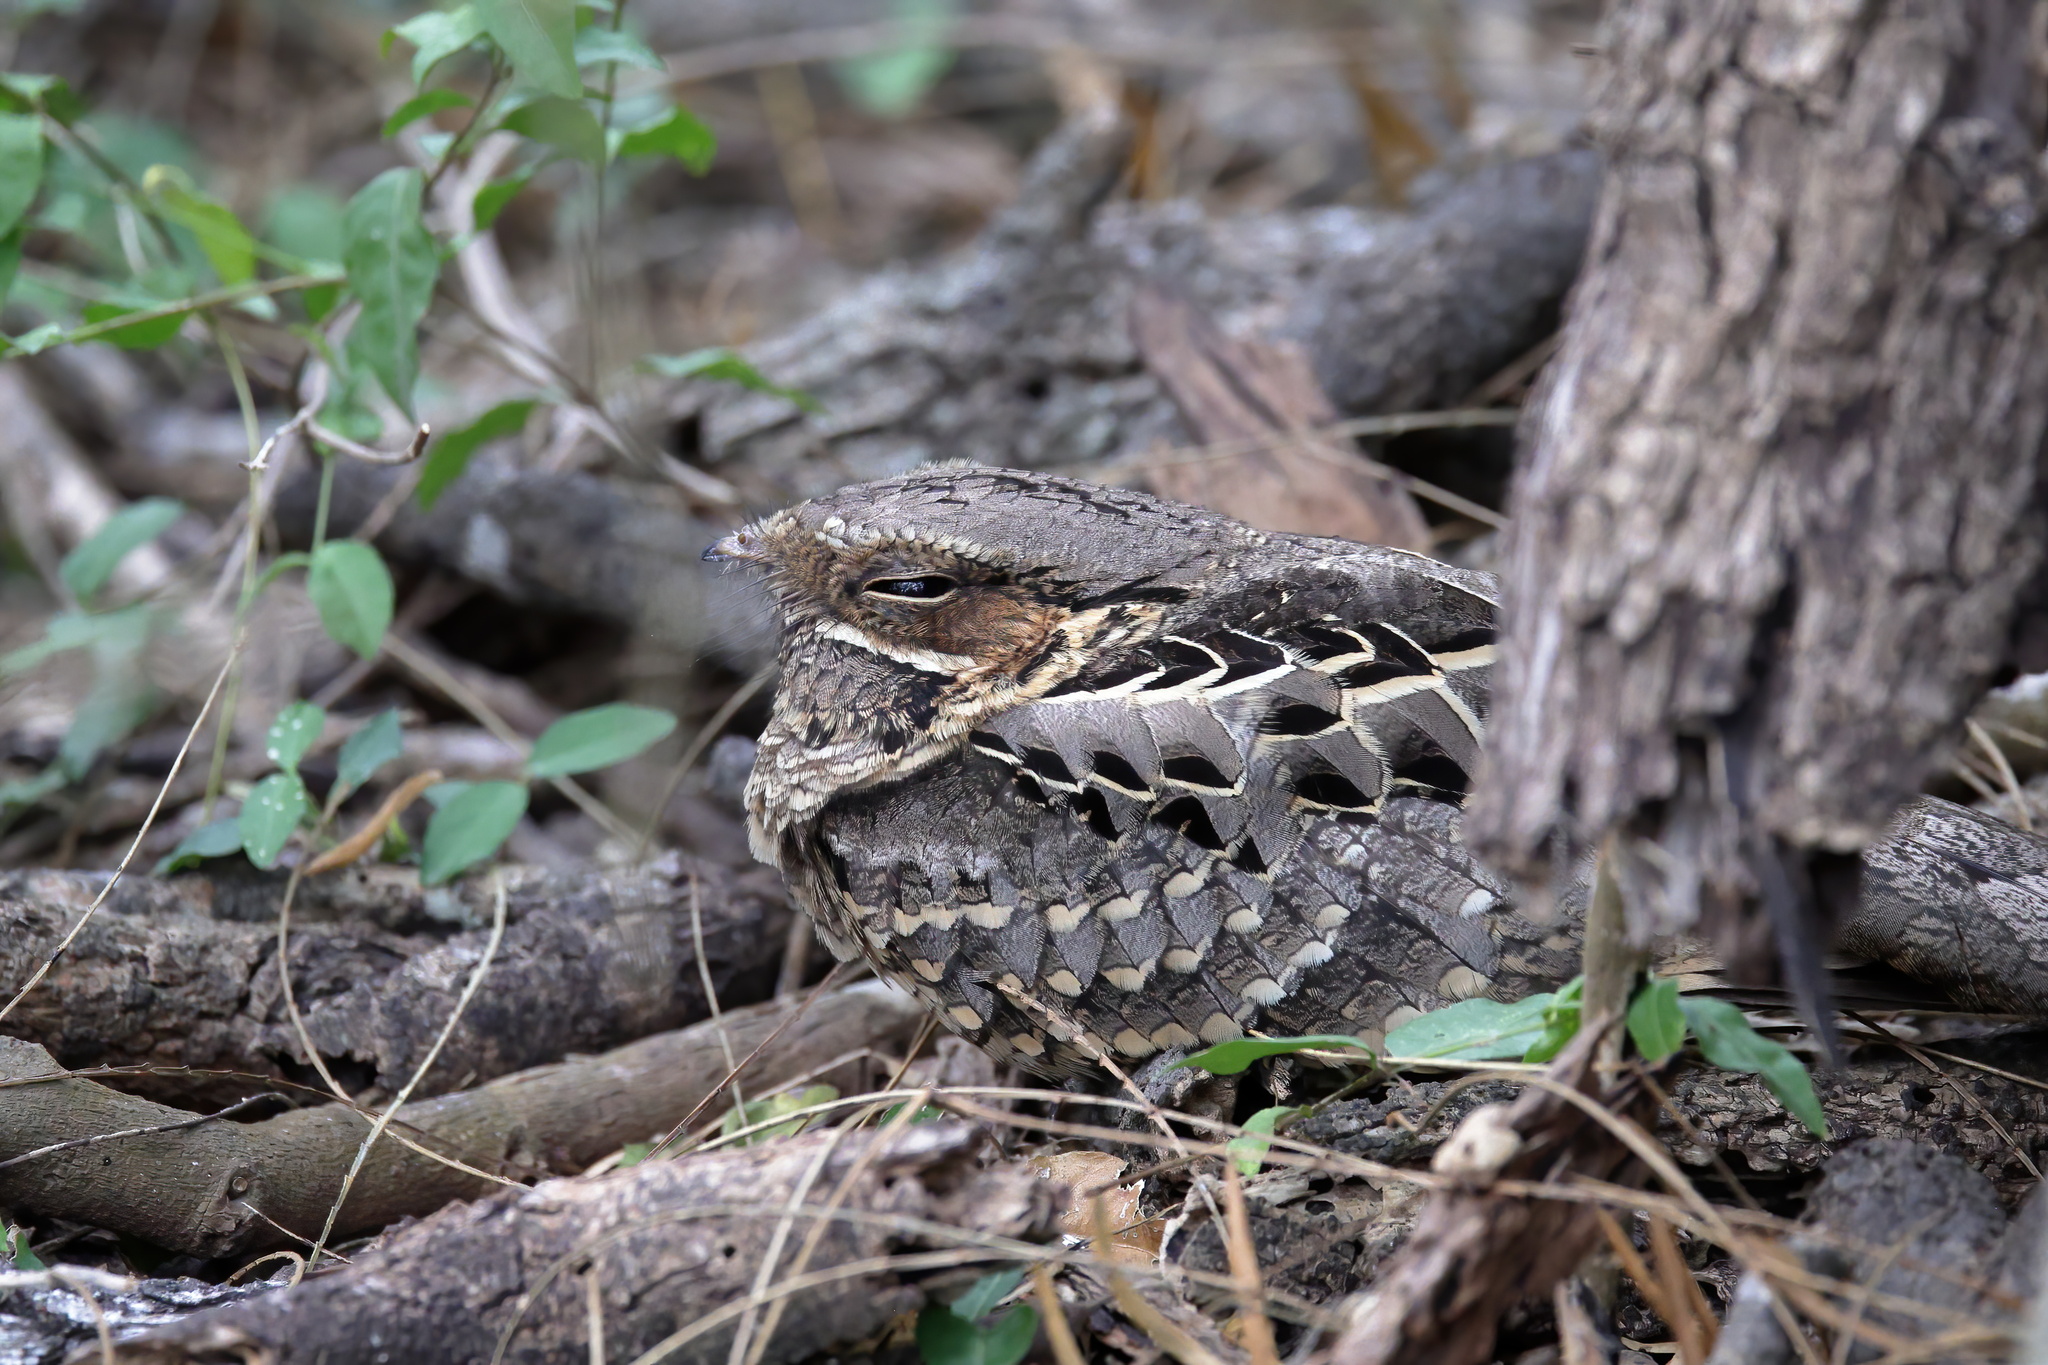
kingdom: Animalia
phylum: Chordata
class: Aves
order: Caprimulgiformes
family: Caprimulgidae
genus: Nyctidromus
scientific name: Nyctidromus albicollis
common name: Pauraque
